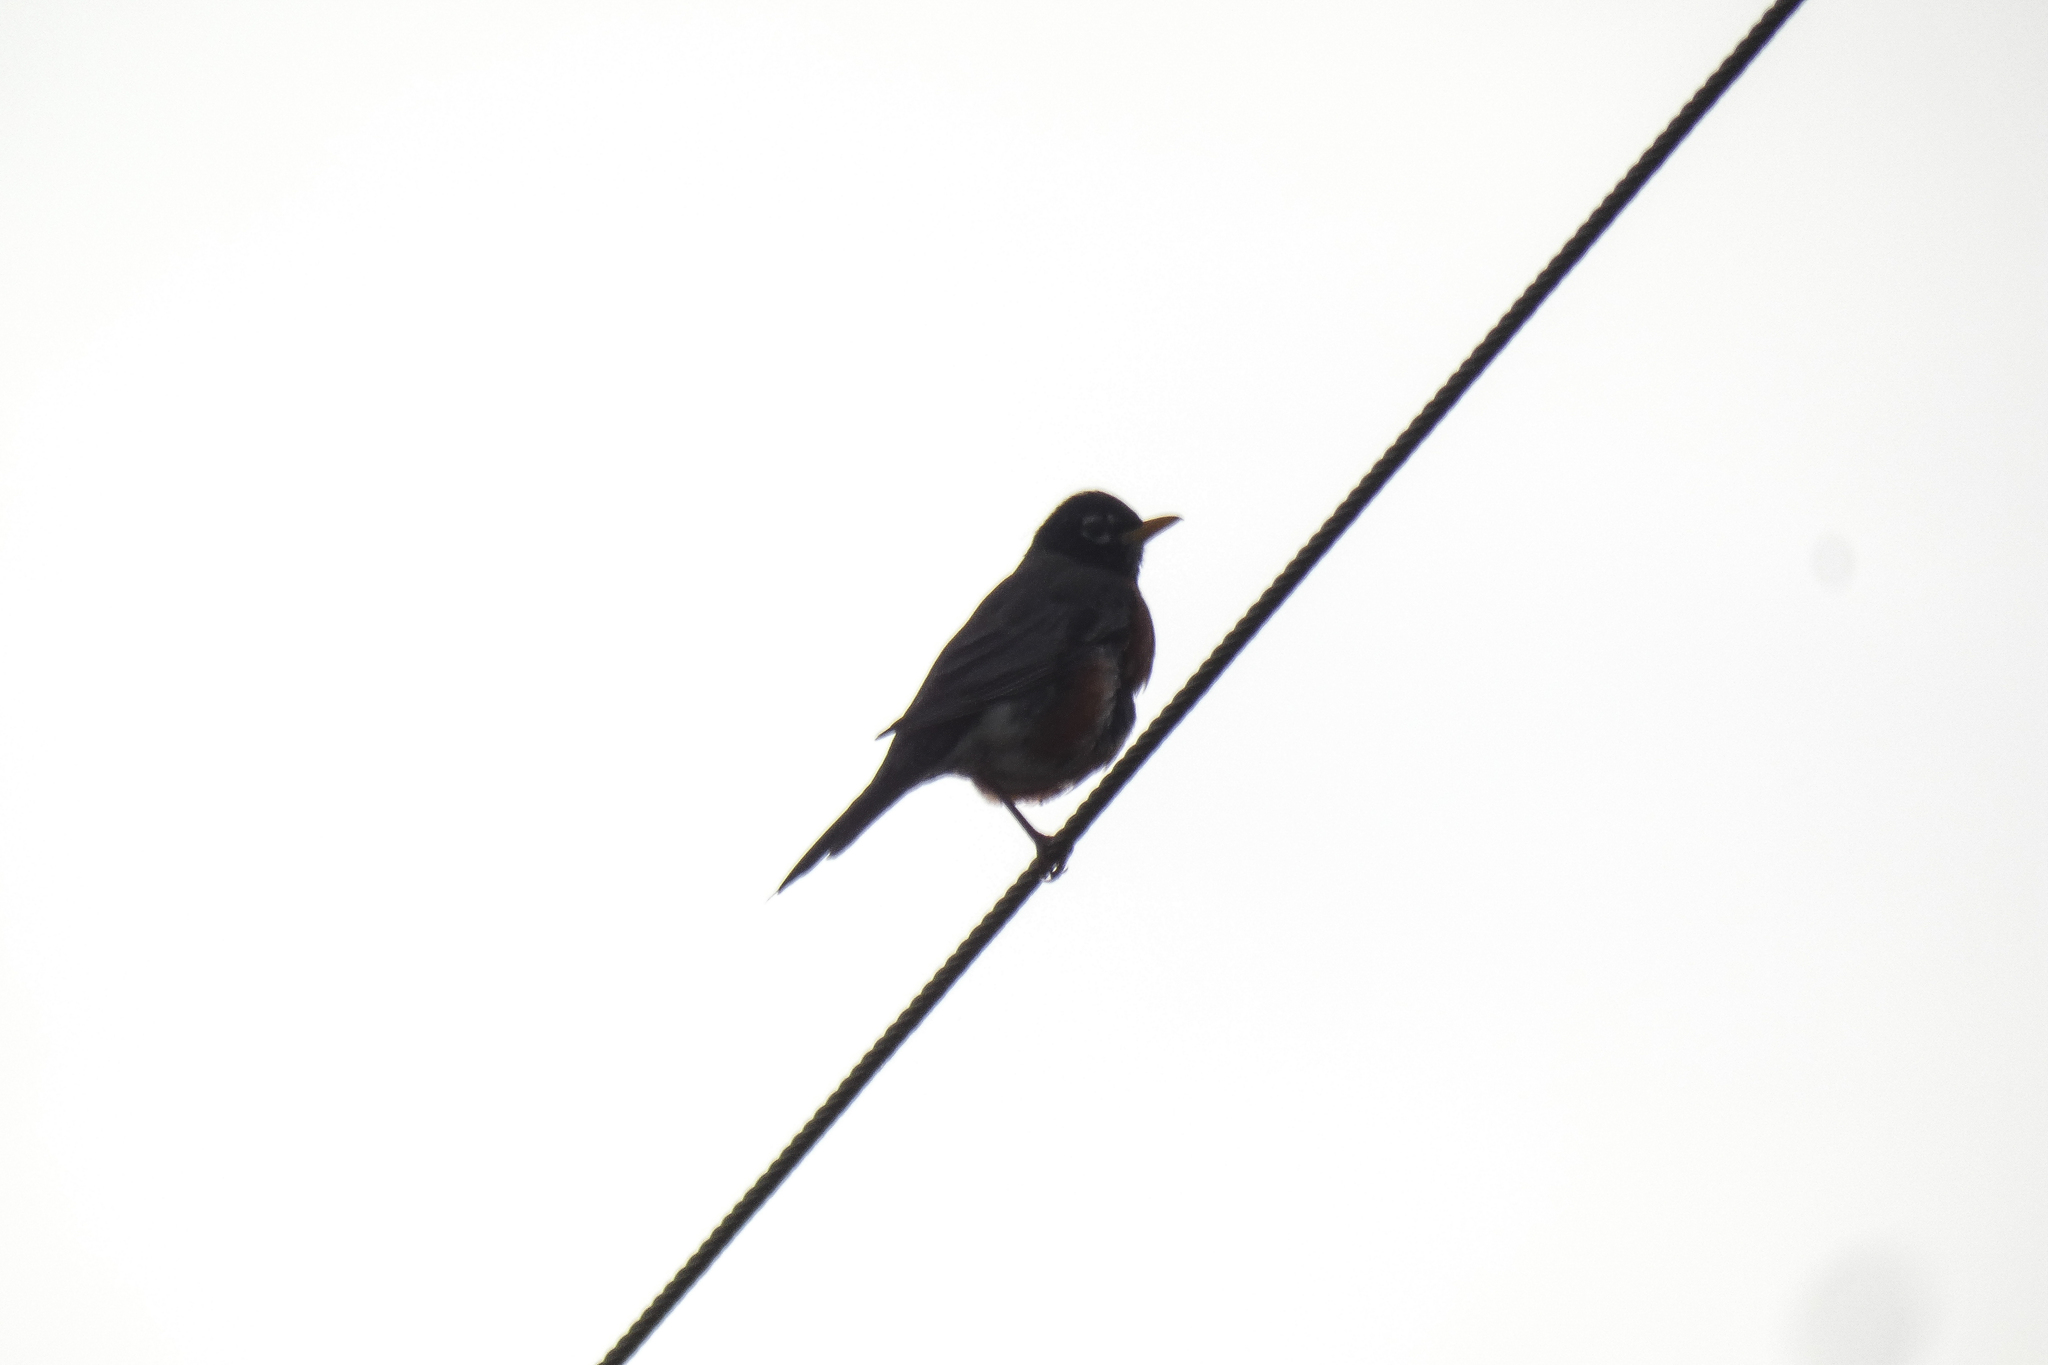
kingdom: Animalia
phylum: Chordata
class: Aves
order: Passeriformes
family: Turdidae
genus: Turdus
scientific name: Turdus migratorius
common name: American robin
